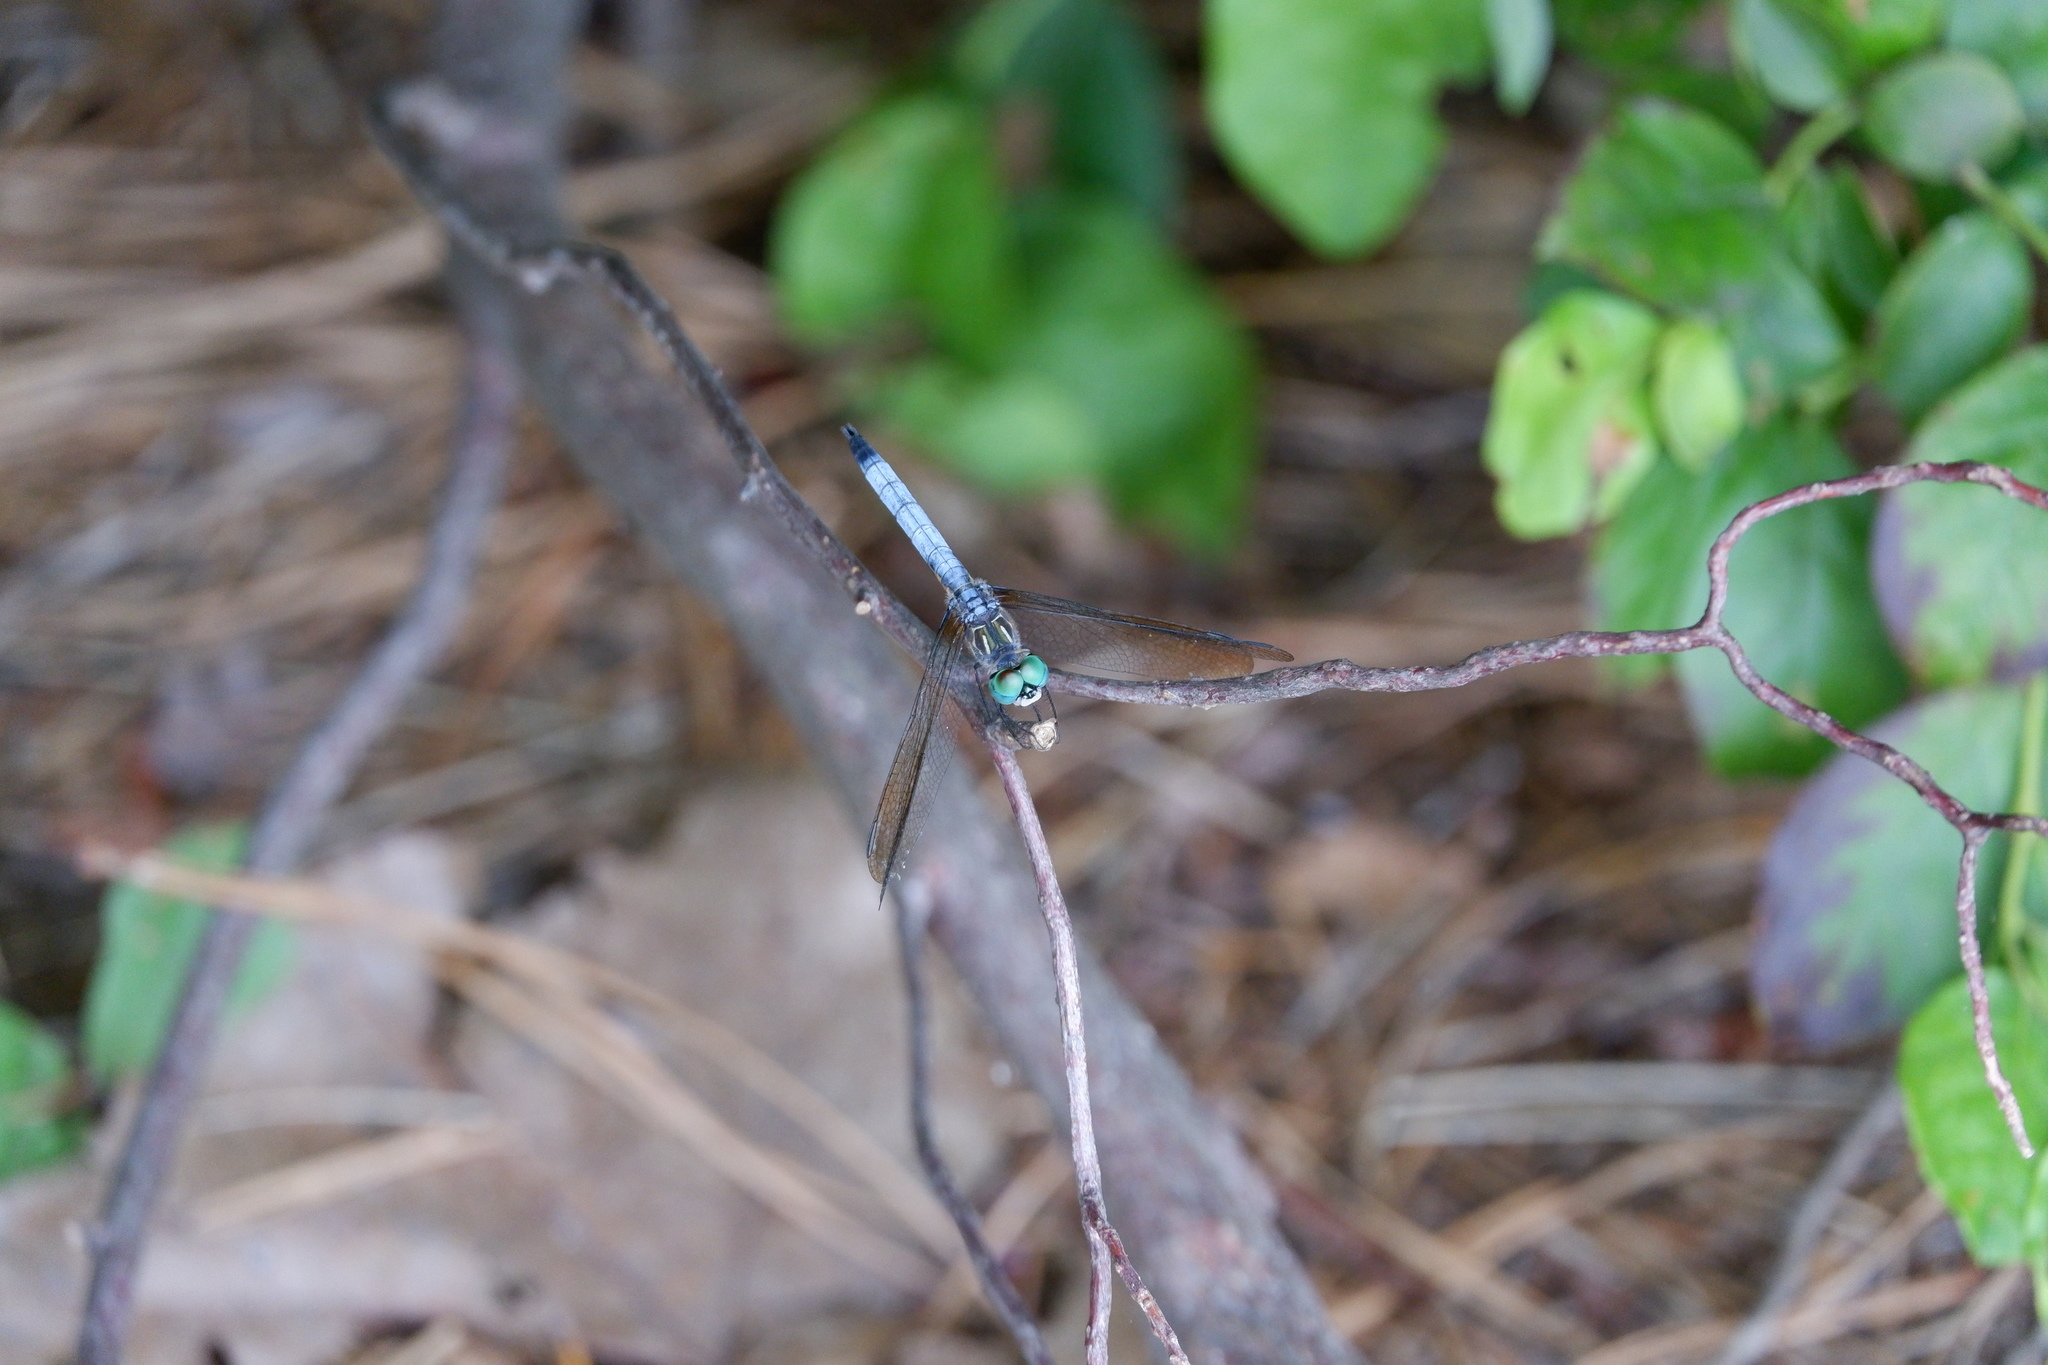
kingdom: Animalia
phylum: Arthropoda
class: Insecta
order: Odonata
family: Libellulidae
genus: Pachydiplax
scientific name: Pachydiplax longipennis
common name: Blue dasher
